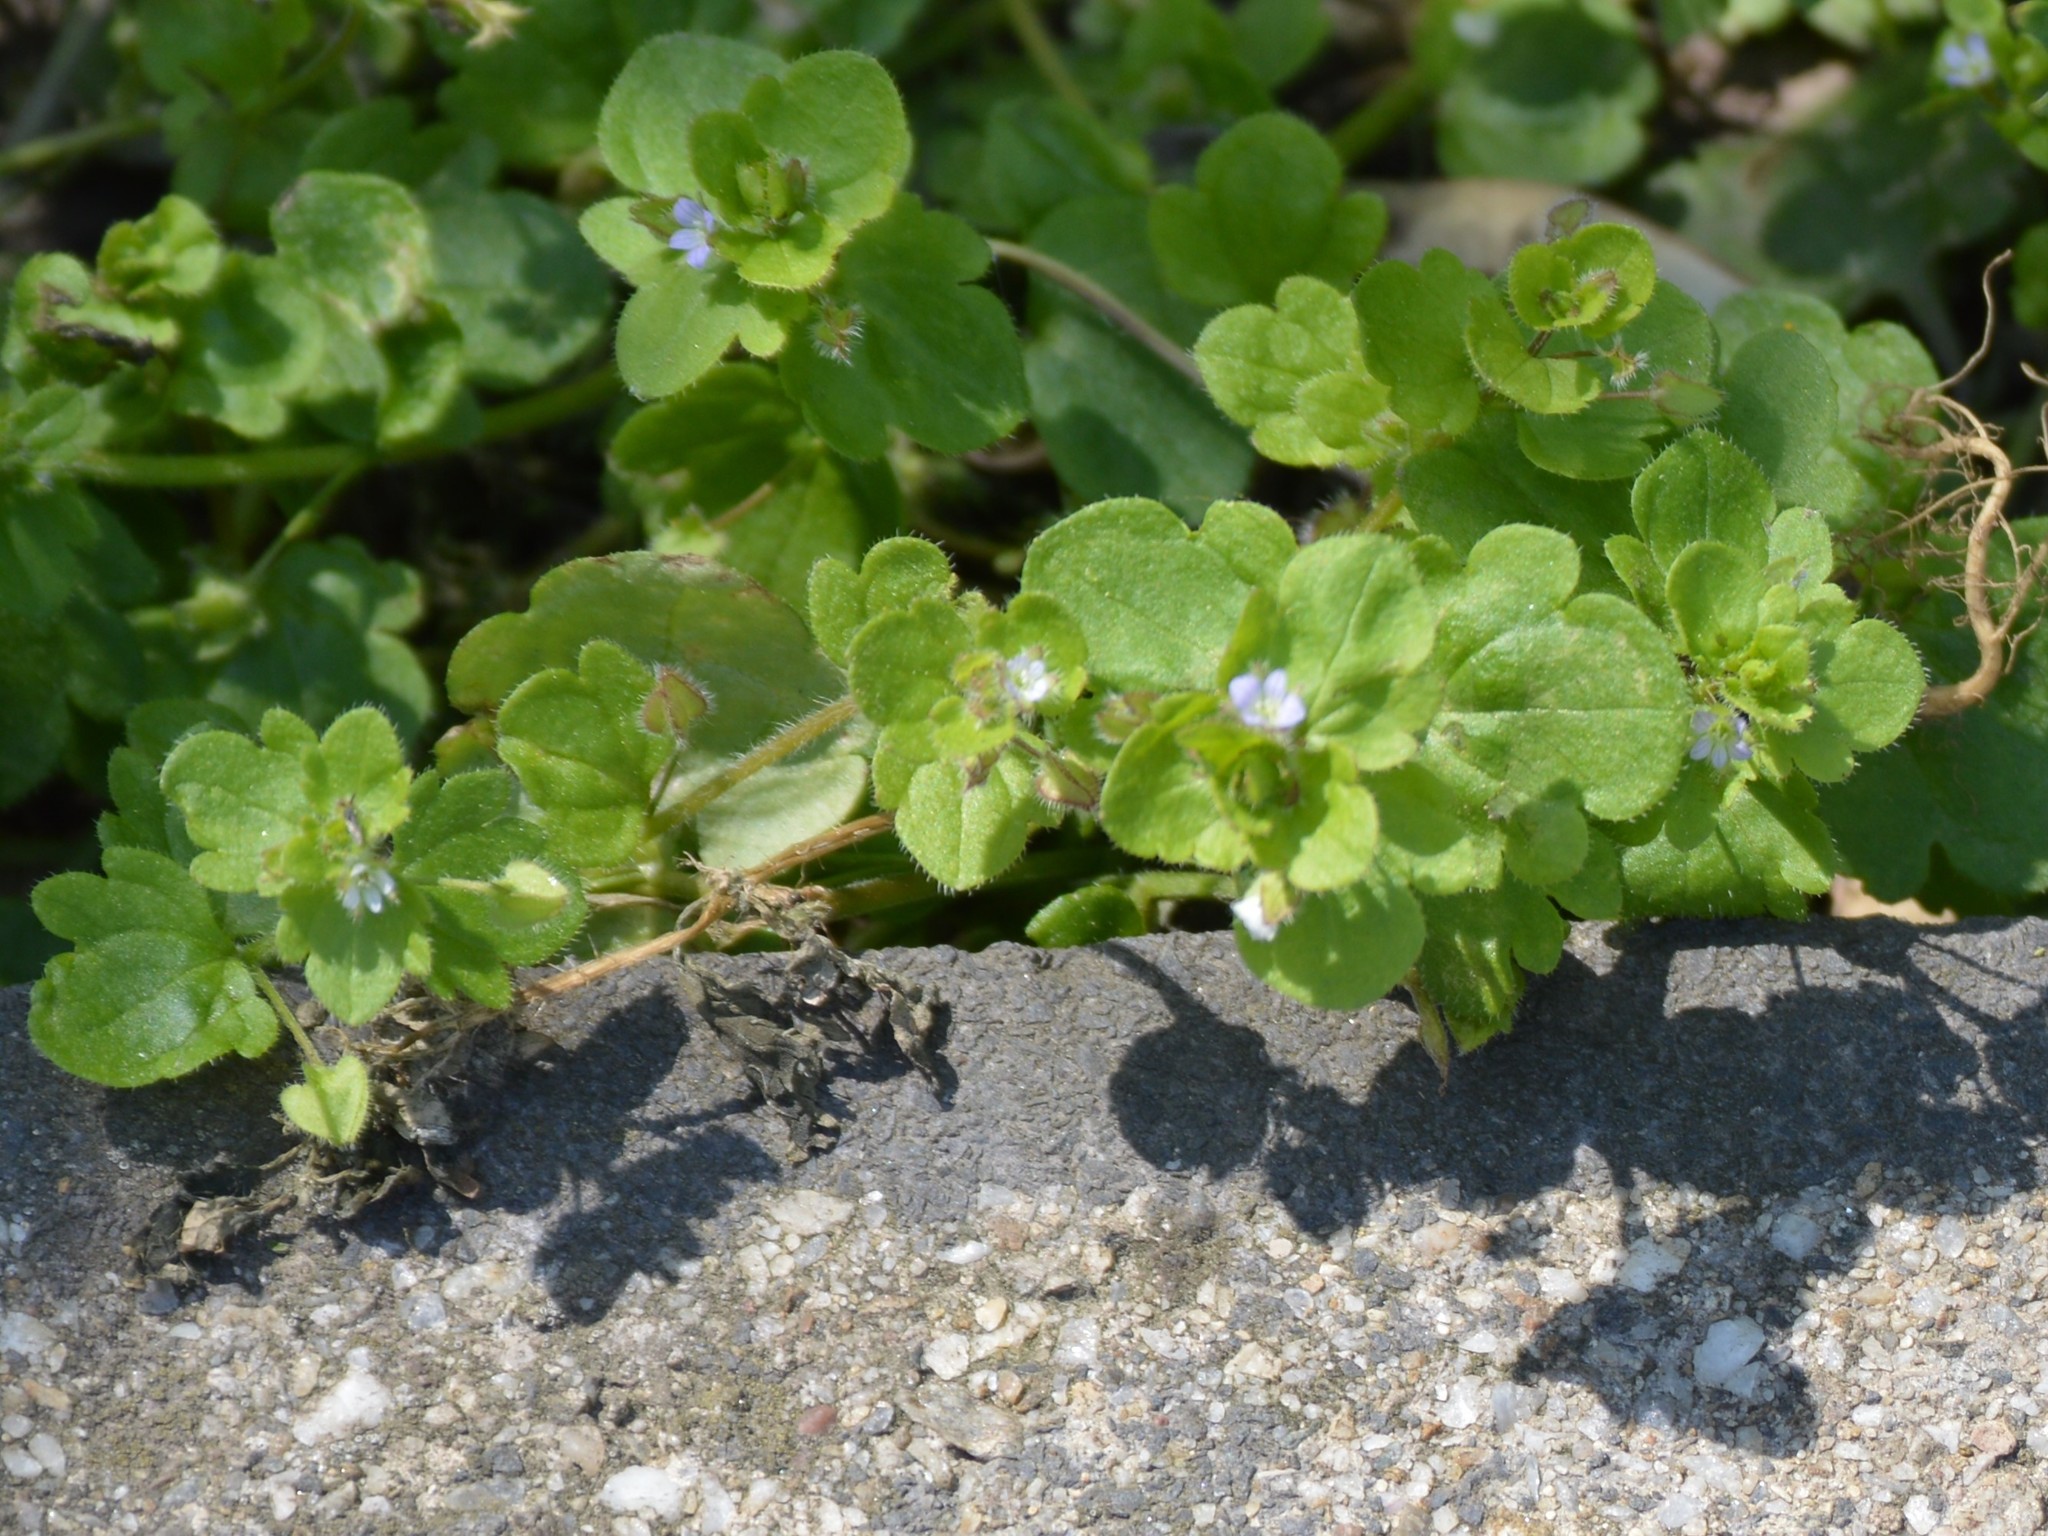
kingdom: Plantae
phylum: Tracheophyta
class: Magnoliopsida
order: Lamiales
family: Plantaginaceae
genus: Veronica
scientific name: Veronica hederifolia
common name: Ivy-leaved speedwell
